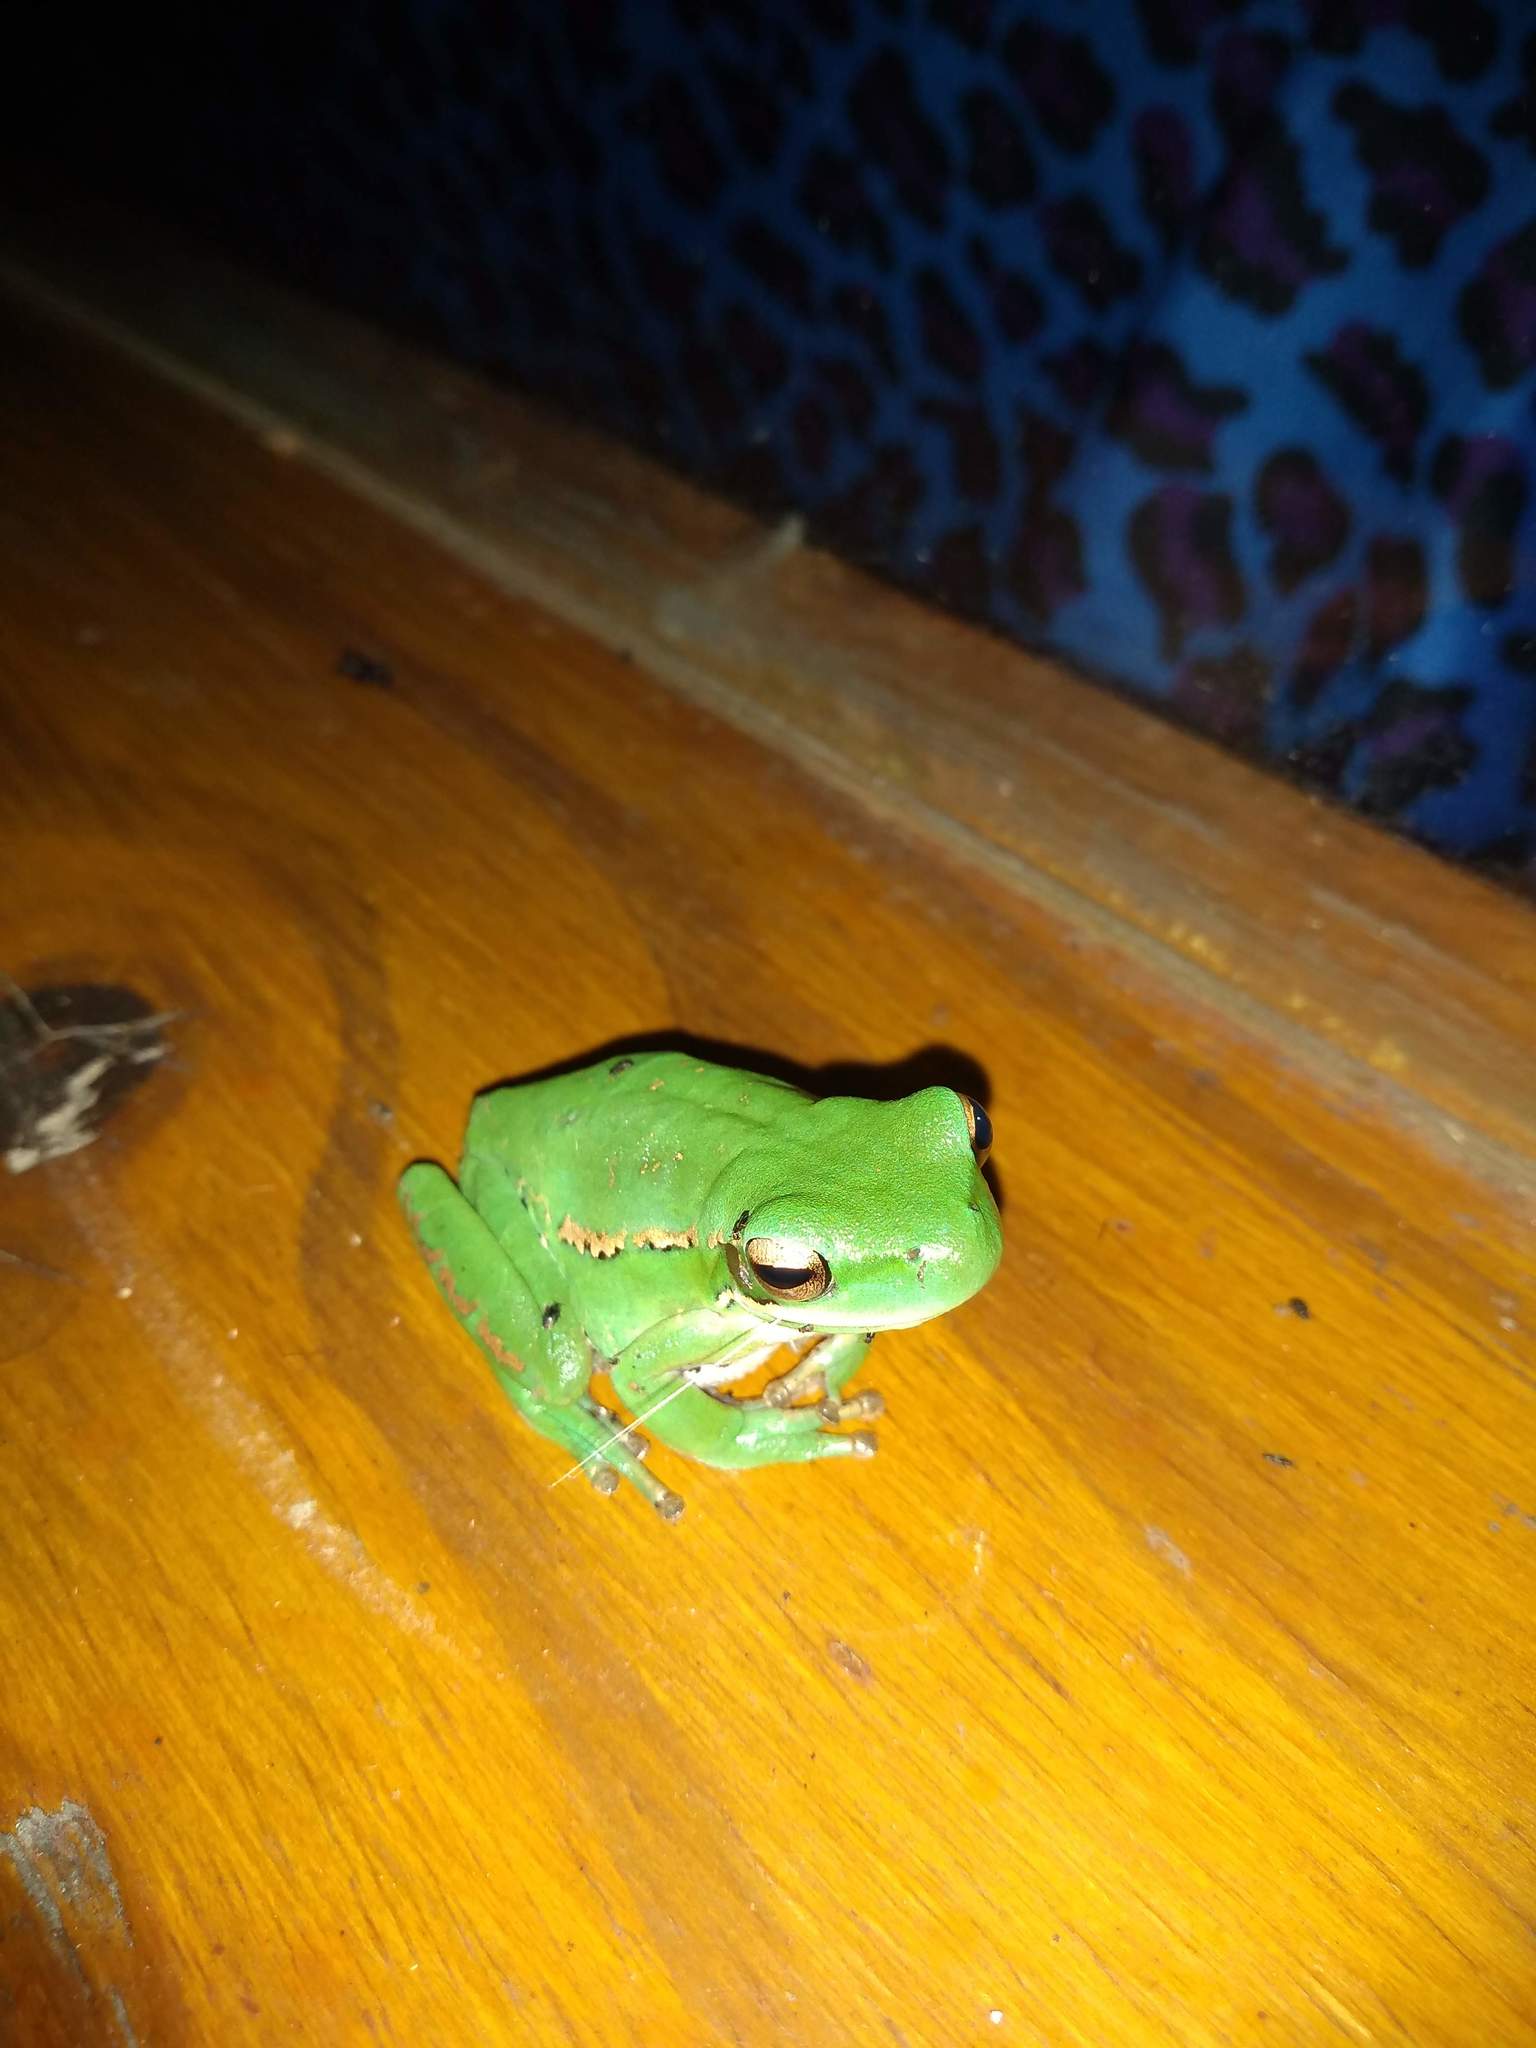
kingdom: Animalia
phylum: Chordata
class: Amphibia
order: Anura
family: Hylidae
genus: Boana
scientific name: Boana pulchella
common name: Montevideo treefrog
